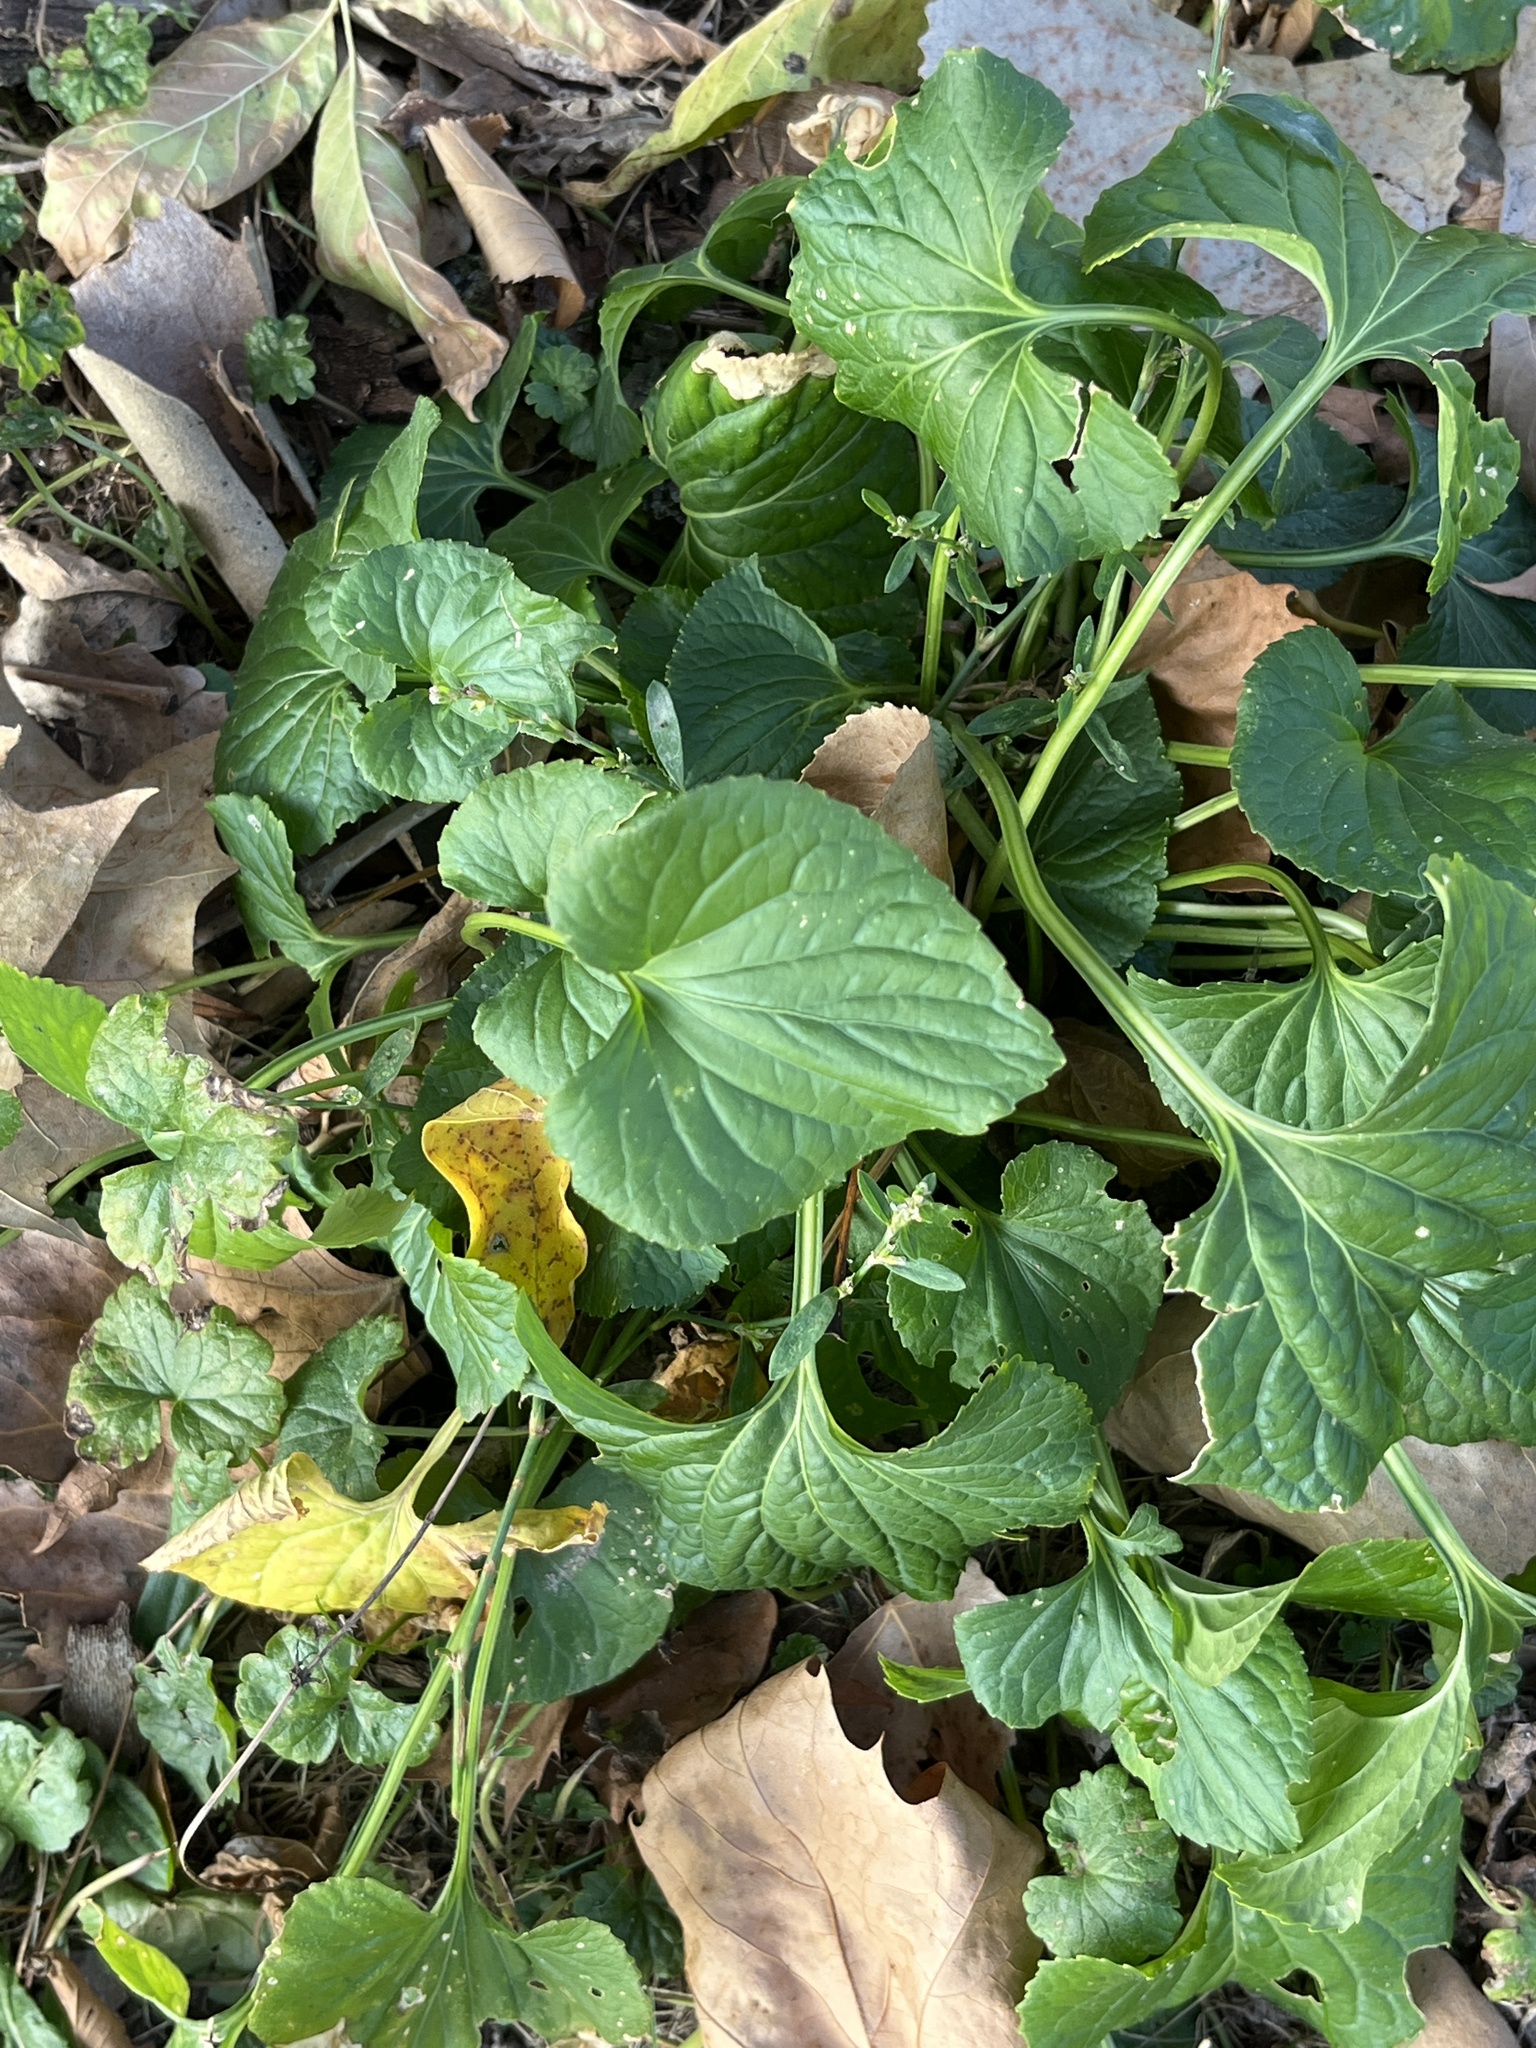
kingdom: Plantae
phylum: Tracheophyta
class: Magnoliopsida
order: Malpighiales
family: Violaceae
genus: Viola
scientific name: Viola sororia
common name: Dooryard violet
